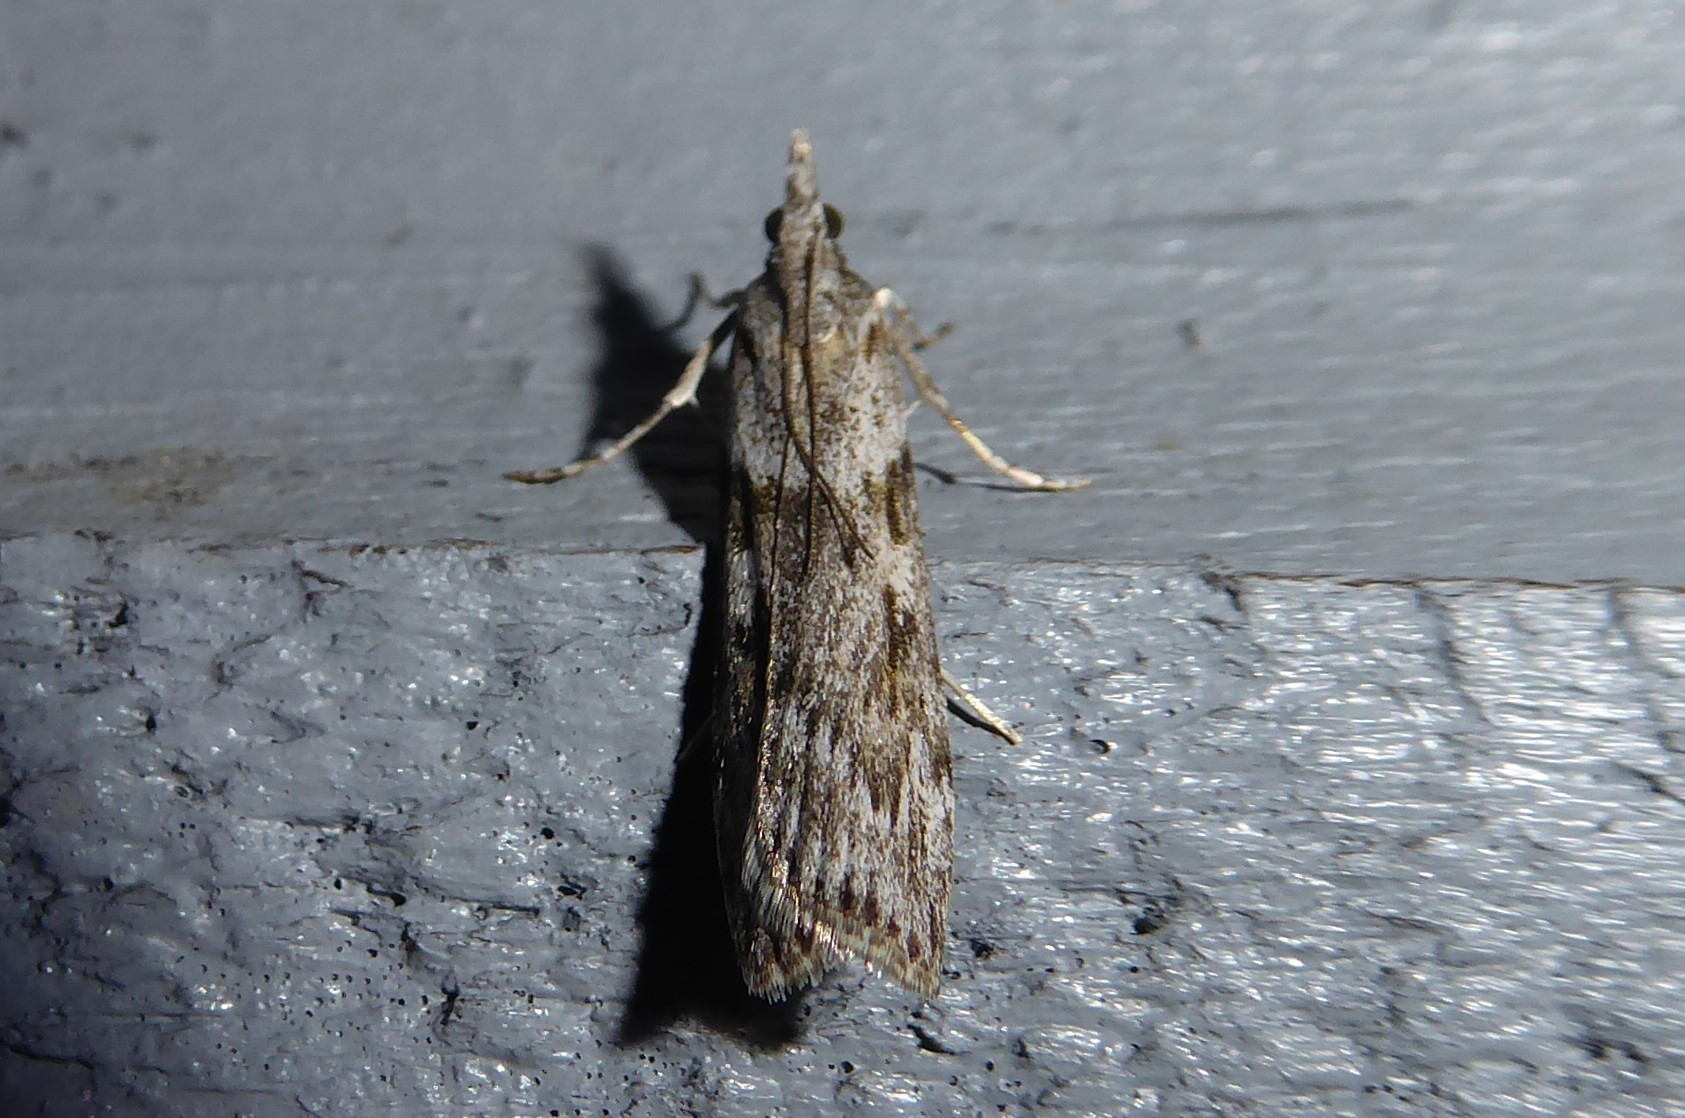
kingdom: Animalia
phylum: Arthropoda
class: Insecta
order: Lepidoptera
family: Crambidae
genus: Scoparia
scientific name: Scoparia halopis
